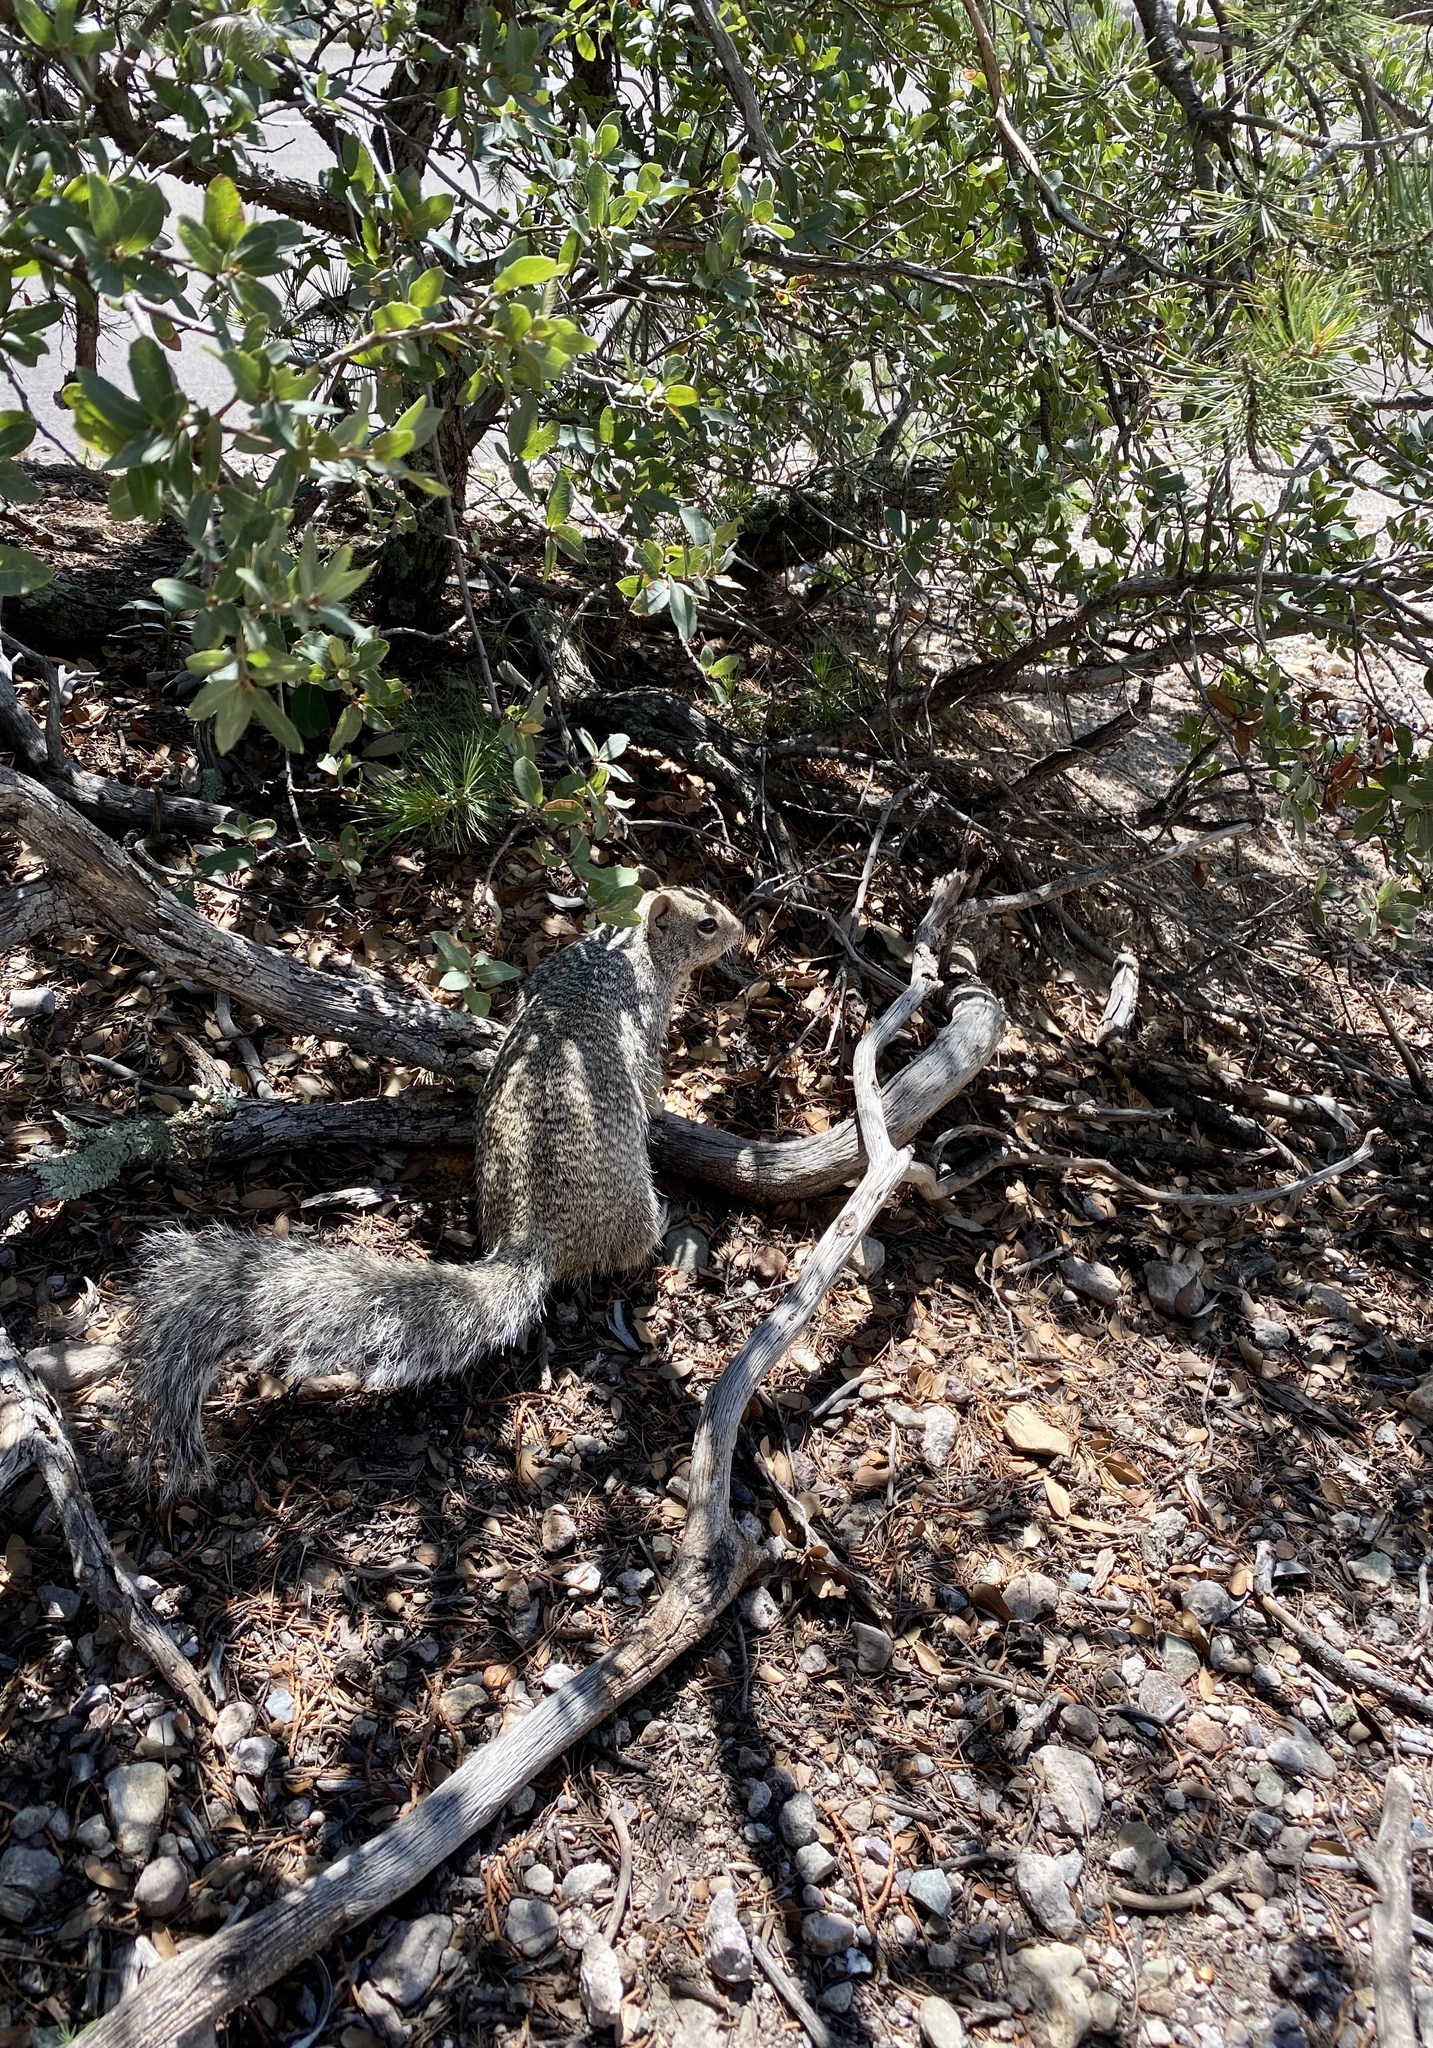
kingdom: Animalia
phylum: Chordata
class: Mammalia
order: Rodentia
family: Sciuridae
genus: Otospermophilus
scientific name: Otospermophilus variegatus
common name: Rock squirrel
